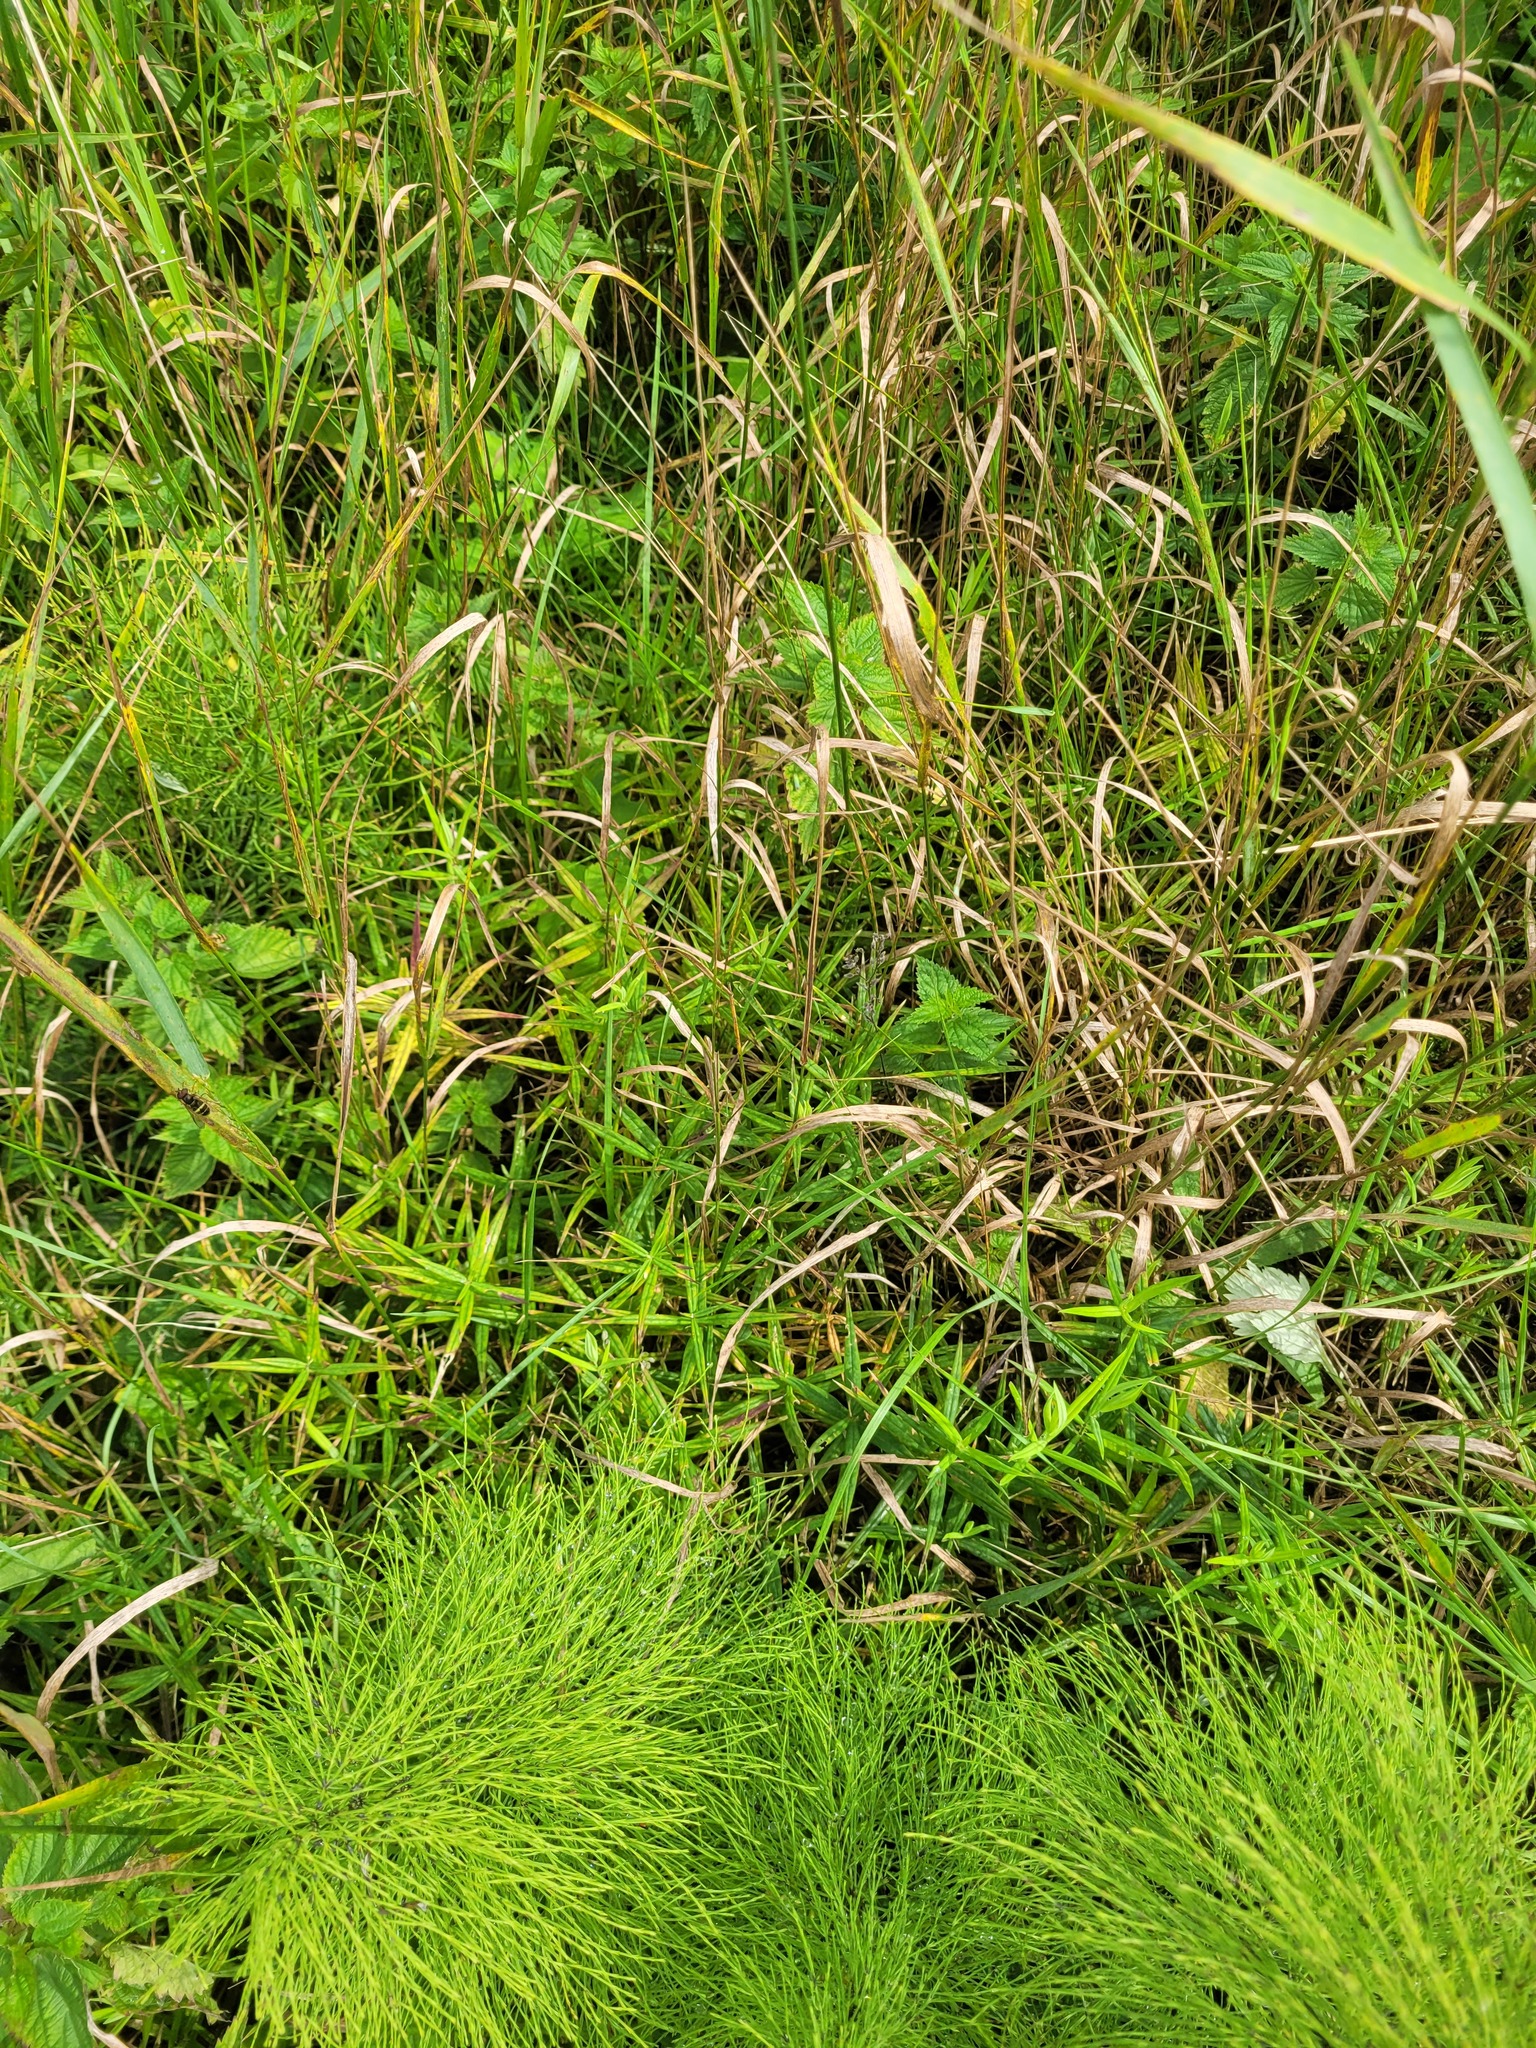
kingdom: Plantae
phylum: Tracheophyta
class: Magnoliopsida
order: Caryophyllales
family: Caryophyllaceae
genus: Rabelera
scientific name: Rabelera holostea
